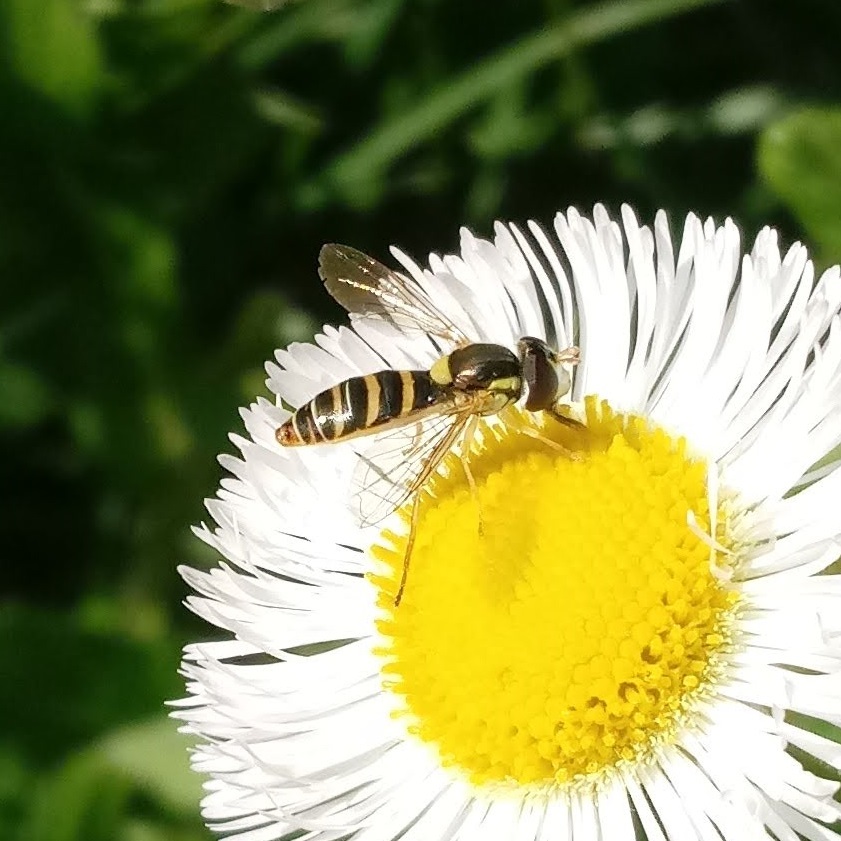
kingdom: Animalia
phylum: Arthropoda
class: Insecta
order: Diptera
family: Syrphidae
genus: Sphaerophoria
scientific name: Sphaerophoria contigua
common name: Tufted globetail
